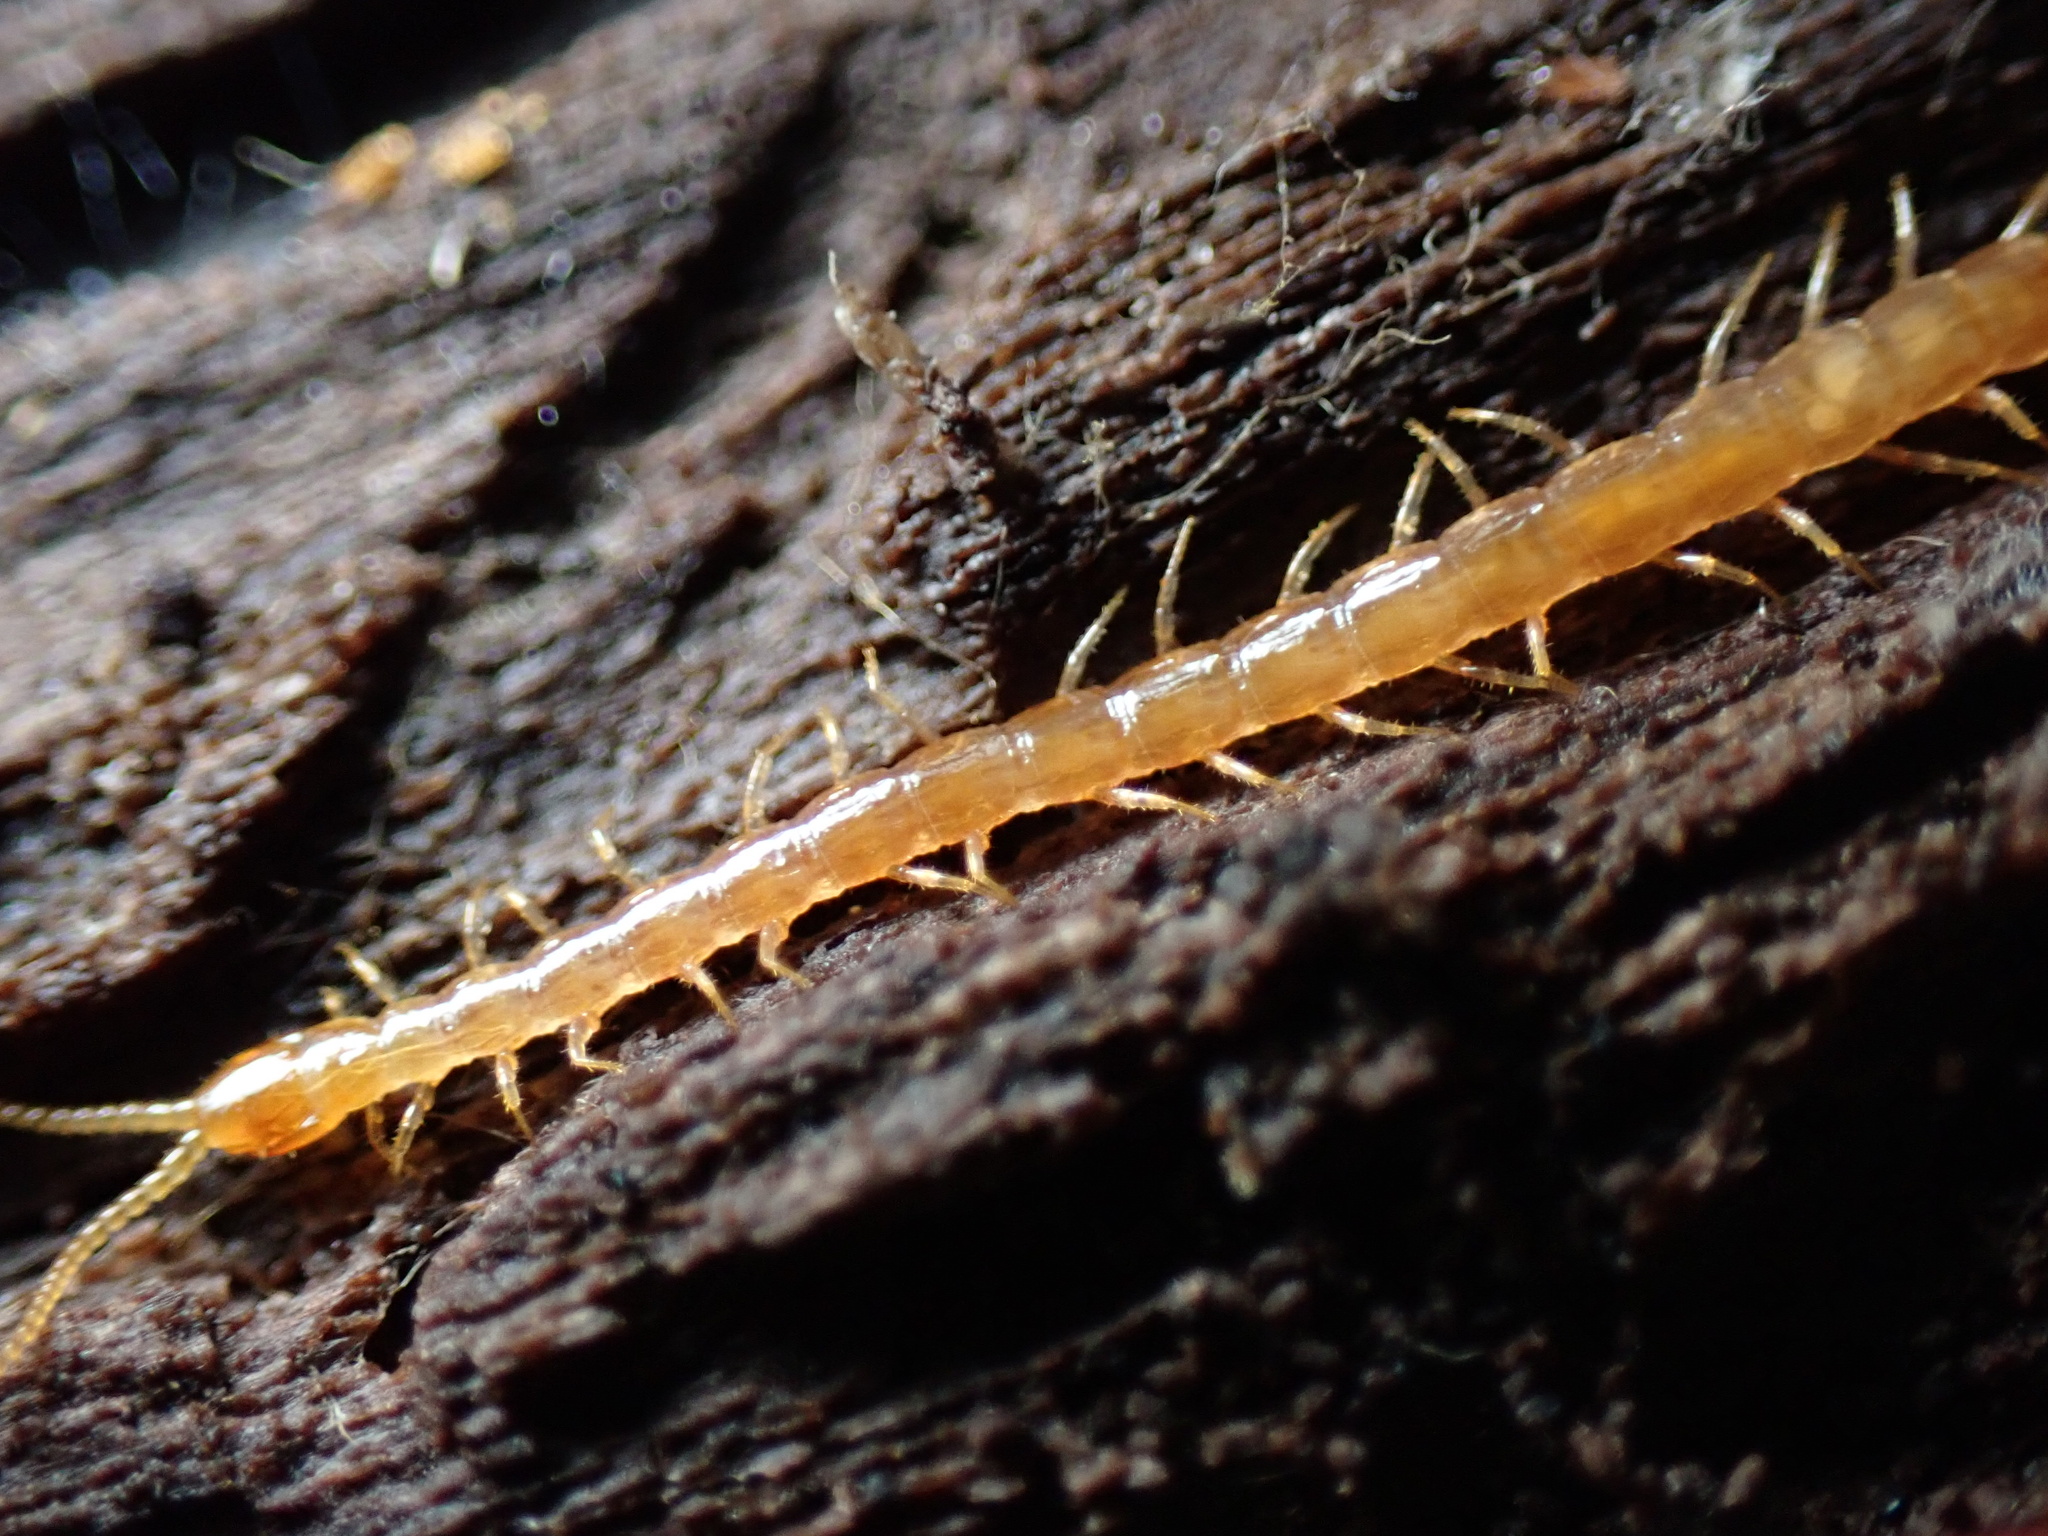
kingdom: Animalia
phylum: Arthropoda
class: Chilopoda
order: Scolopendromorpha
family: Cryptopidae
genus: Cryptops
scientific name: Cryptops hortensis
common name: Centipede
